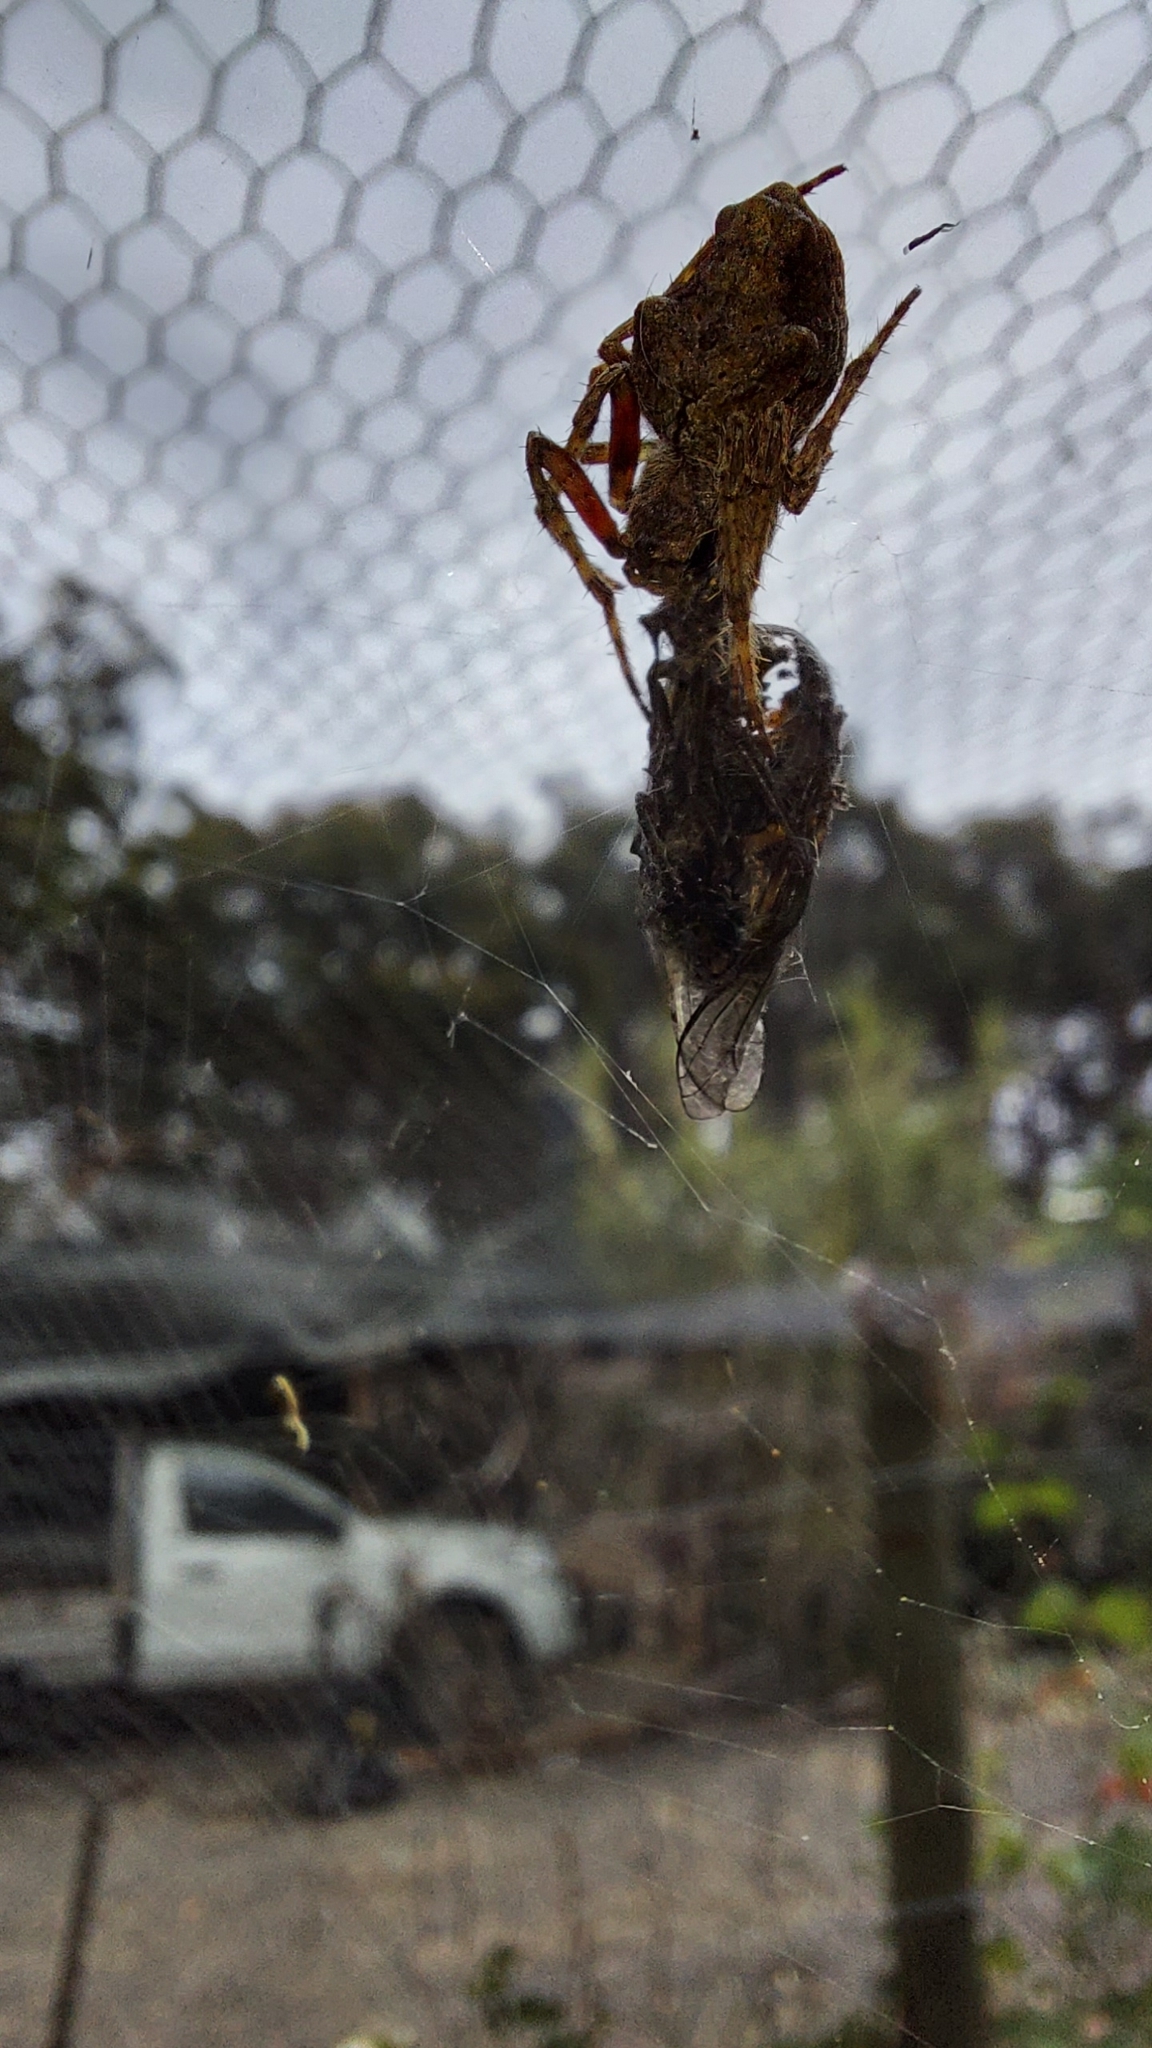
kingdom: Animalia
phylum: Arthropoda
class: Arachnida
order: Araneae
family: Araneidae
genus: Eriophora
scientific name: Eriophora pustulosa
